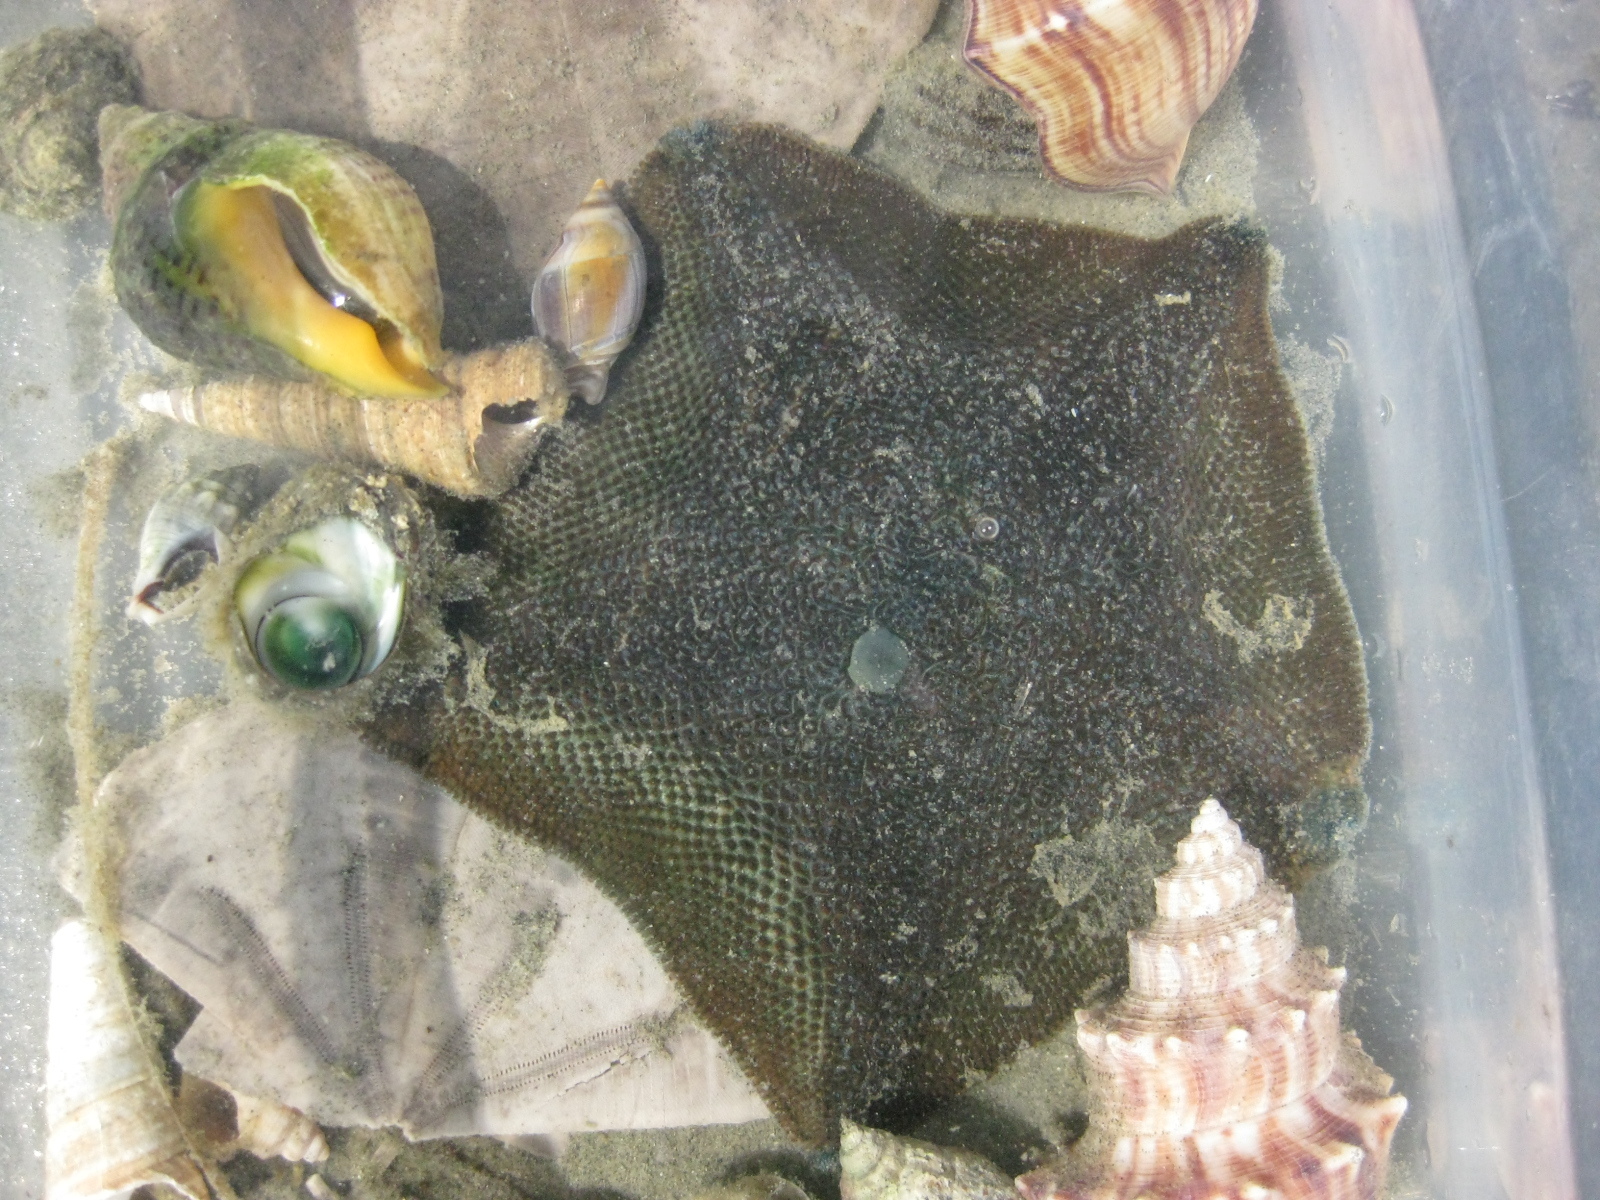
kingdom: Animalia
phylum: Echinodermata
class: Asteroidea
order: Valvatida
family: Asterinidae
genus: Patiriella
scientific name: Patiriella regularis
